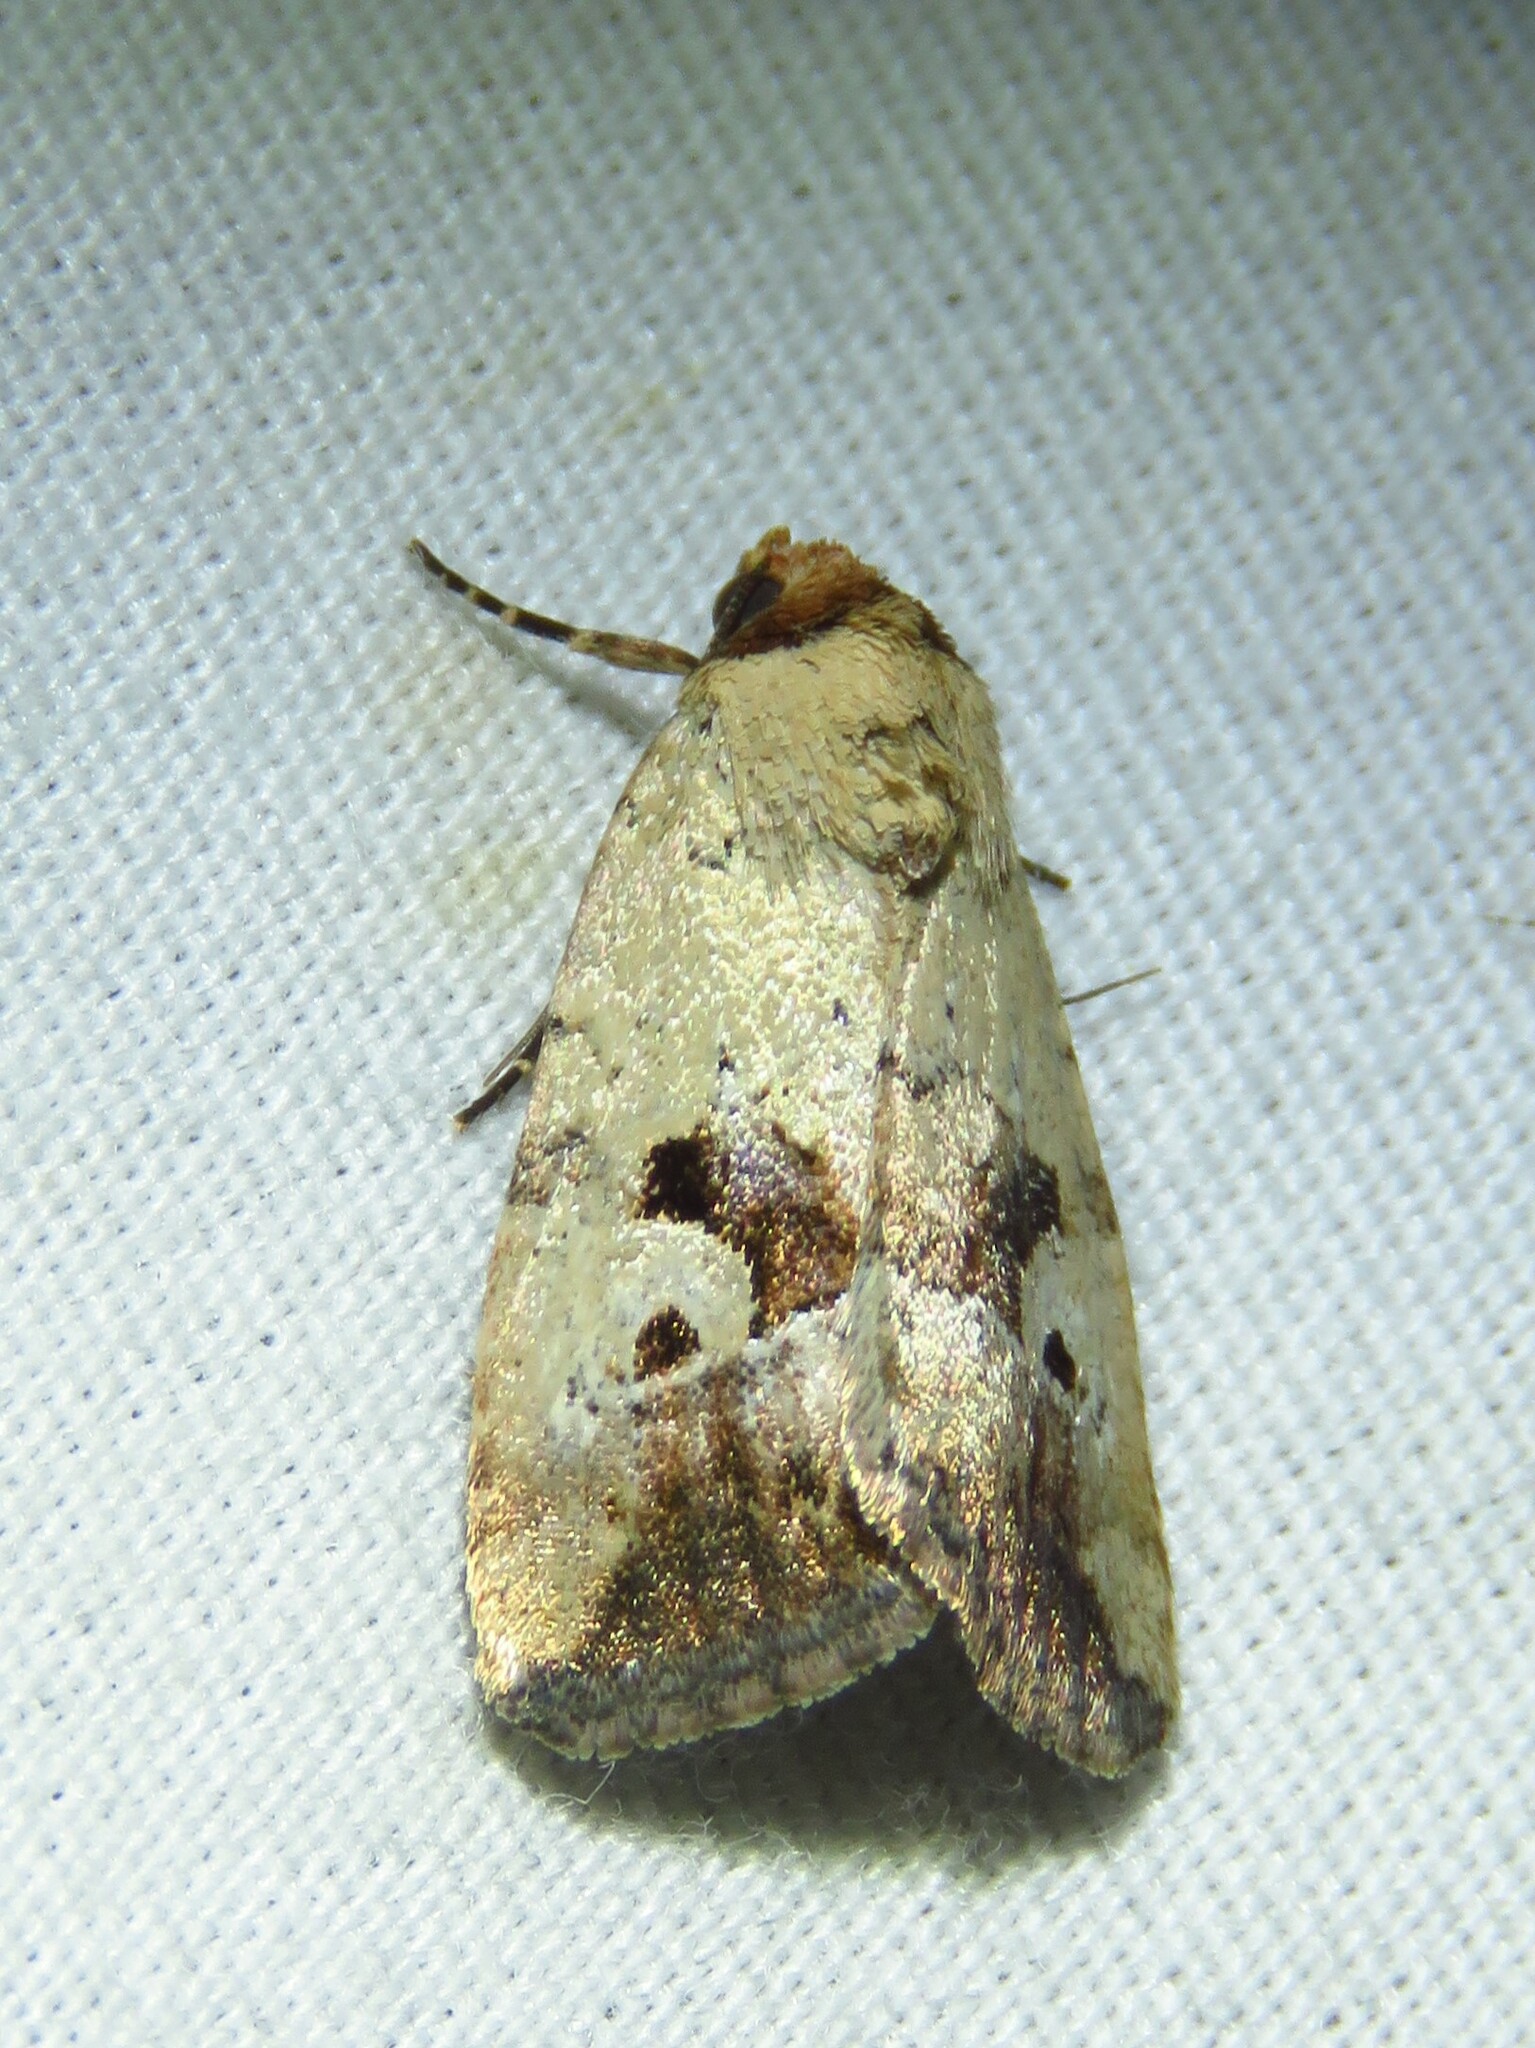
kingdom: Animalia
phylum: Arthropoda
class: Insecta
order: Lepidoptera
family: Noctuidae
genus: Elaphria
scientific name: Elaphria festivoides
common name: Festive midget
